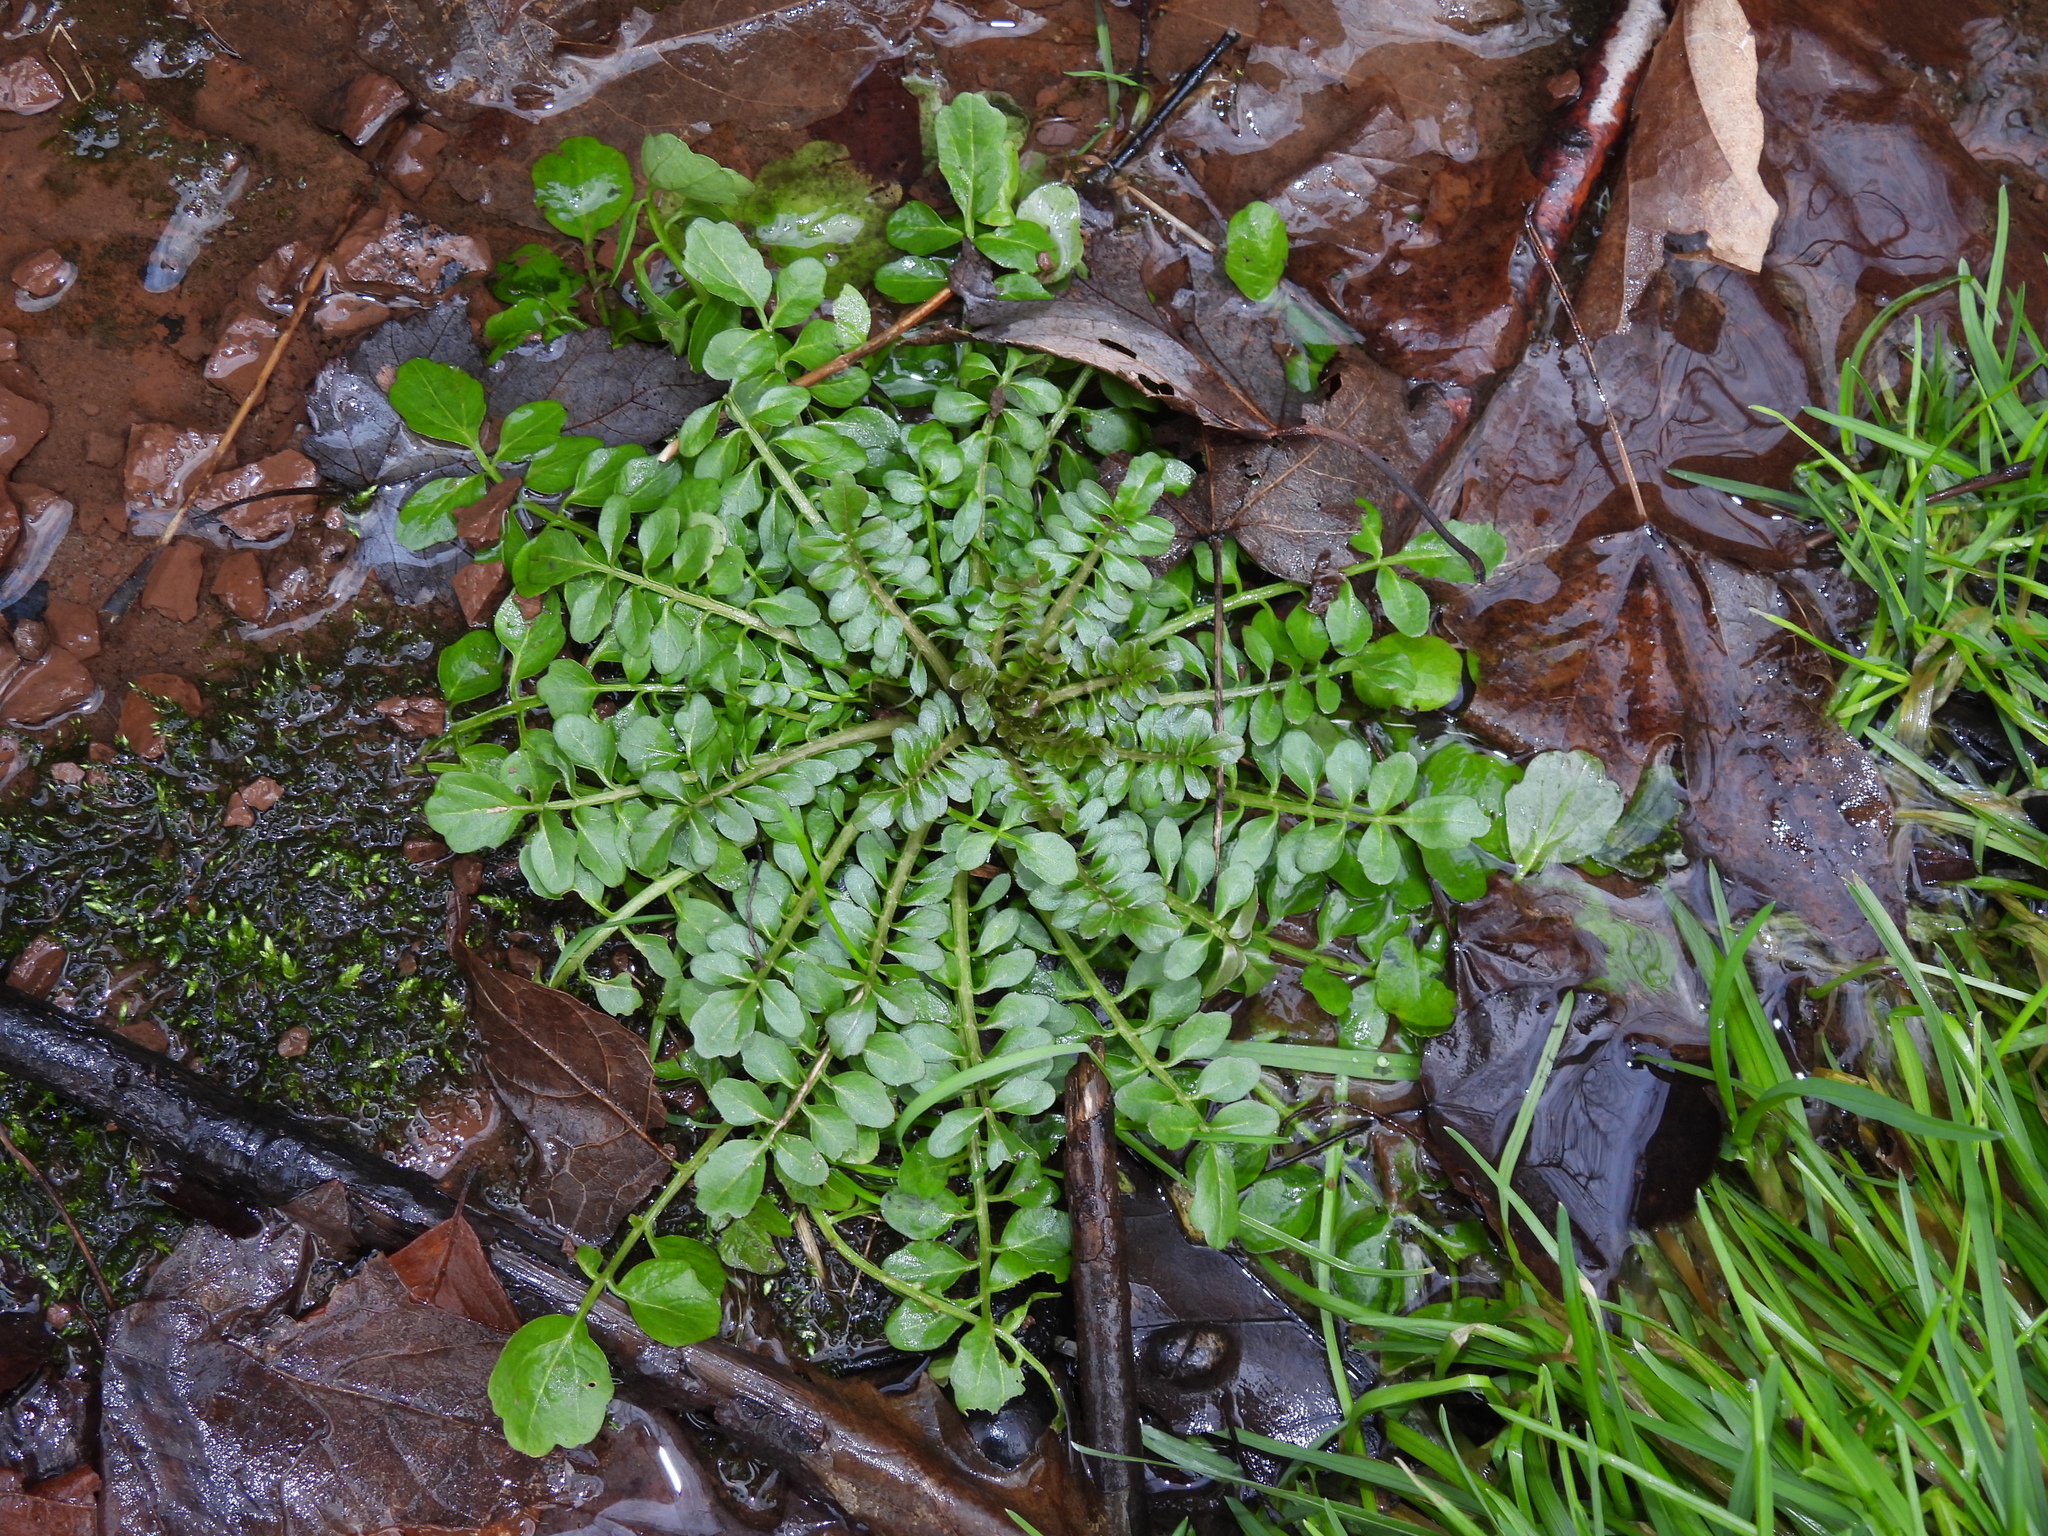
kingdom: Plantae
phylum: Tracheophyta
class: Magnoliopsida
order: Brassicales
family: Brassicaceae
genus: Cardamine
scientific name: Cardamine pensylvanica
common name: Pennsylvania bittercress
